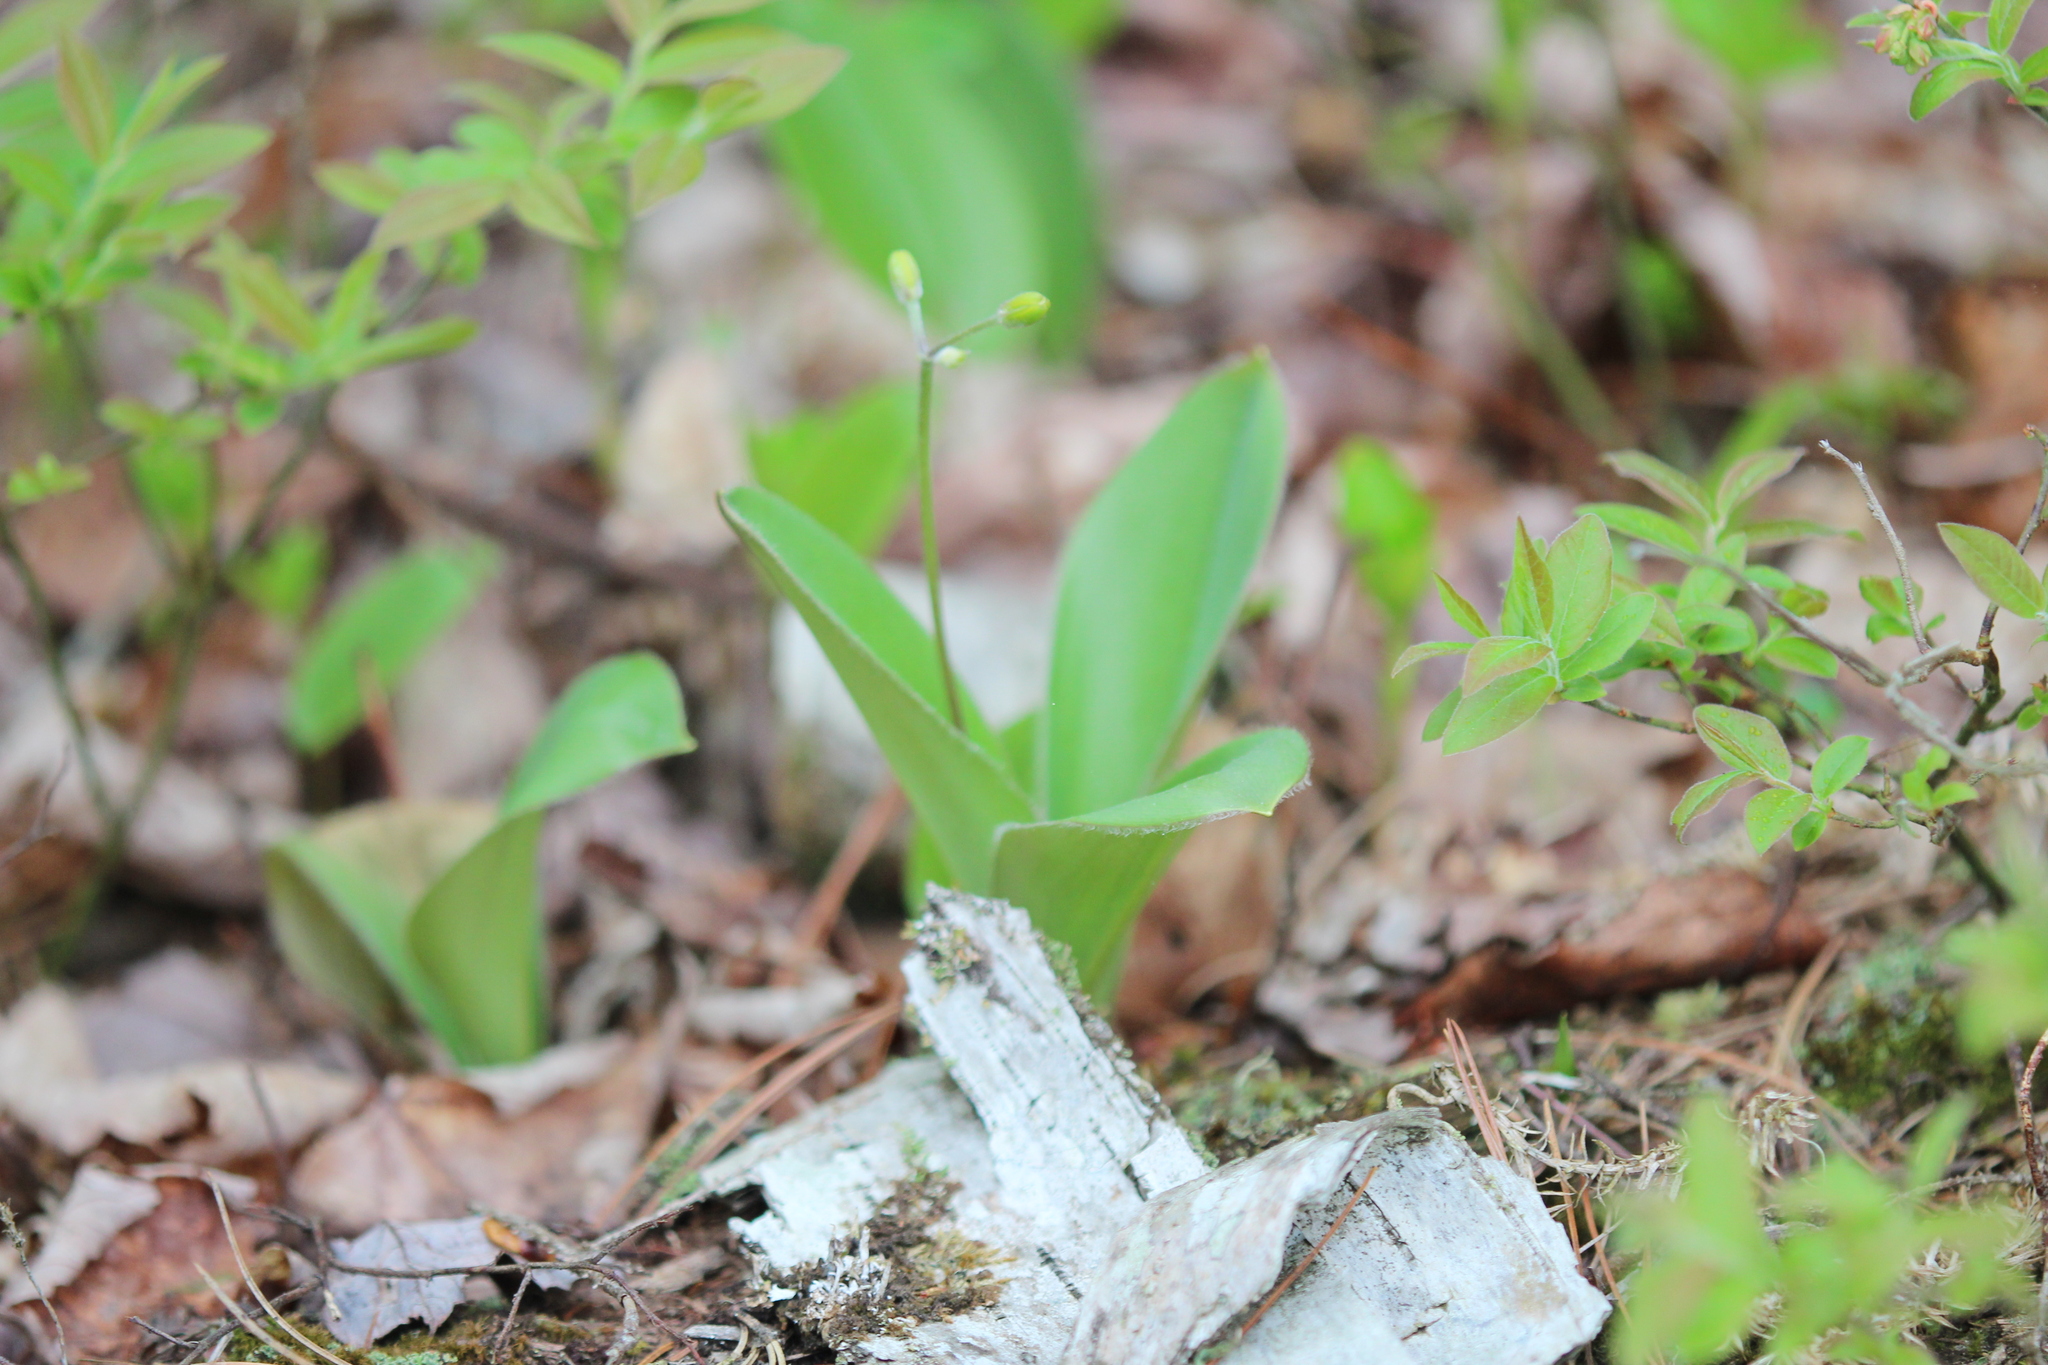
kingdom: Plantae
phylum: Tracheophyta
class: Liliopsida
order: Liliales
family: Liliaceae
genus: Clintonia
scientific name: Clintonia borealis
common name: Yellow clintonia
